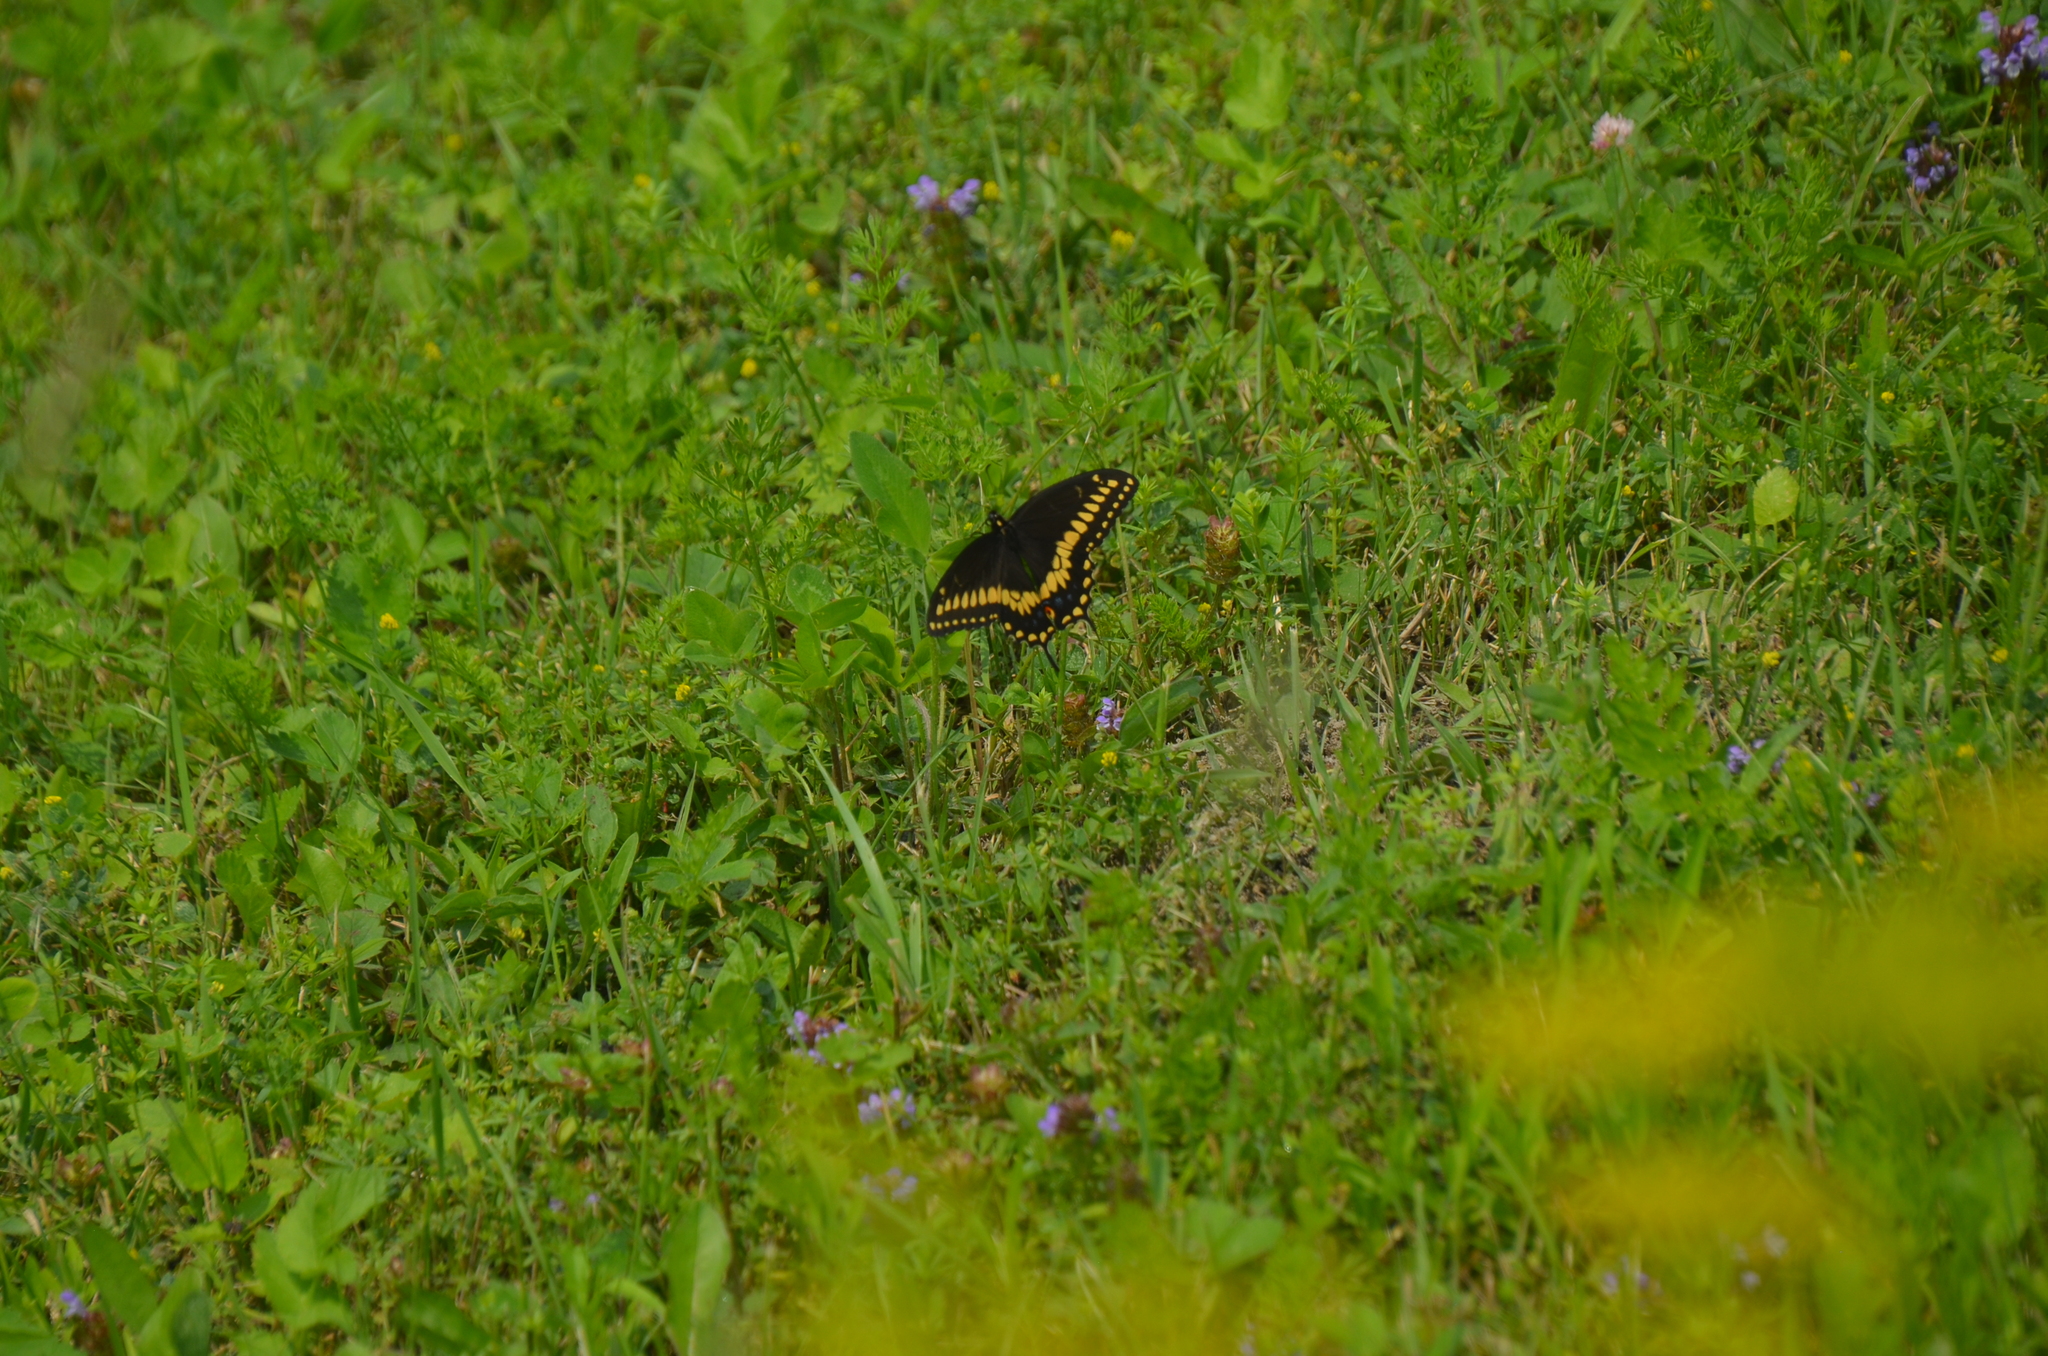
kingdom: Animalia
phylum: Arthropoda
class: Insecta
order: Lepidoptera
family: Papilionidae
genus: Papilio
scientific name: Papilio polyxenes
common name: Black swallowtail
